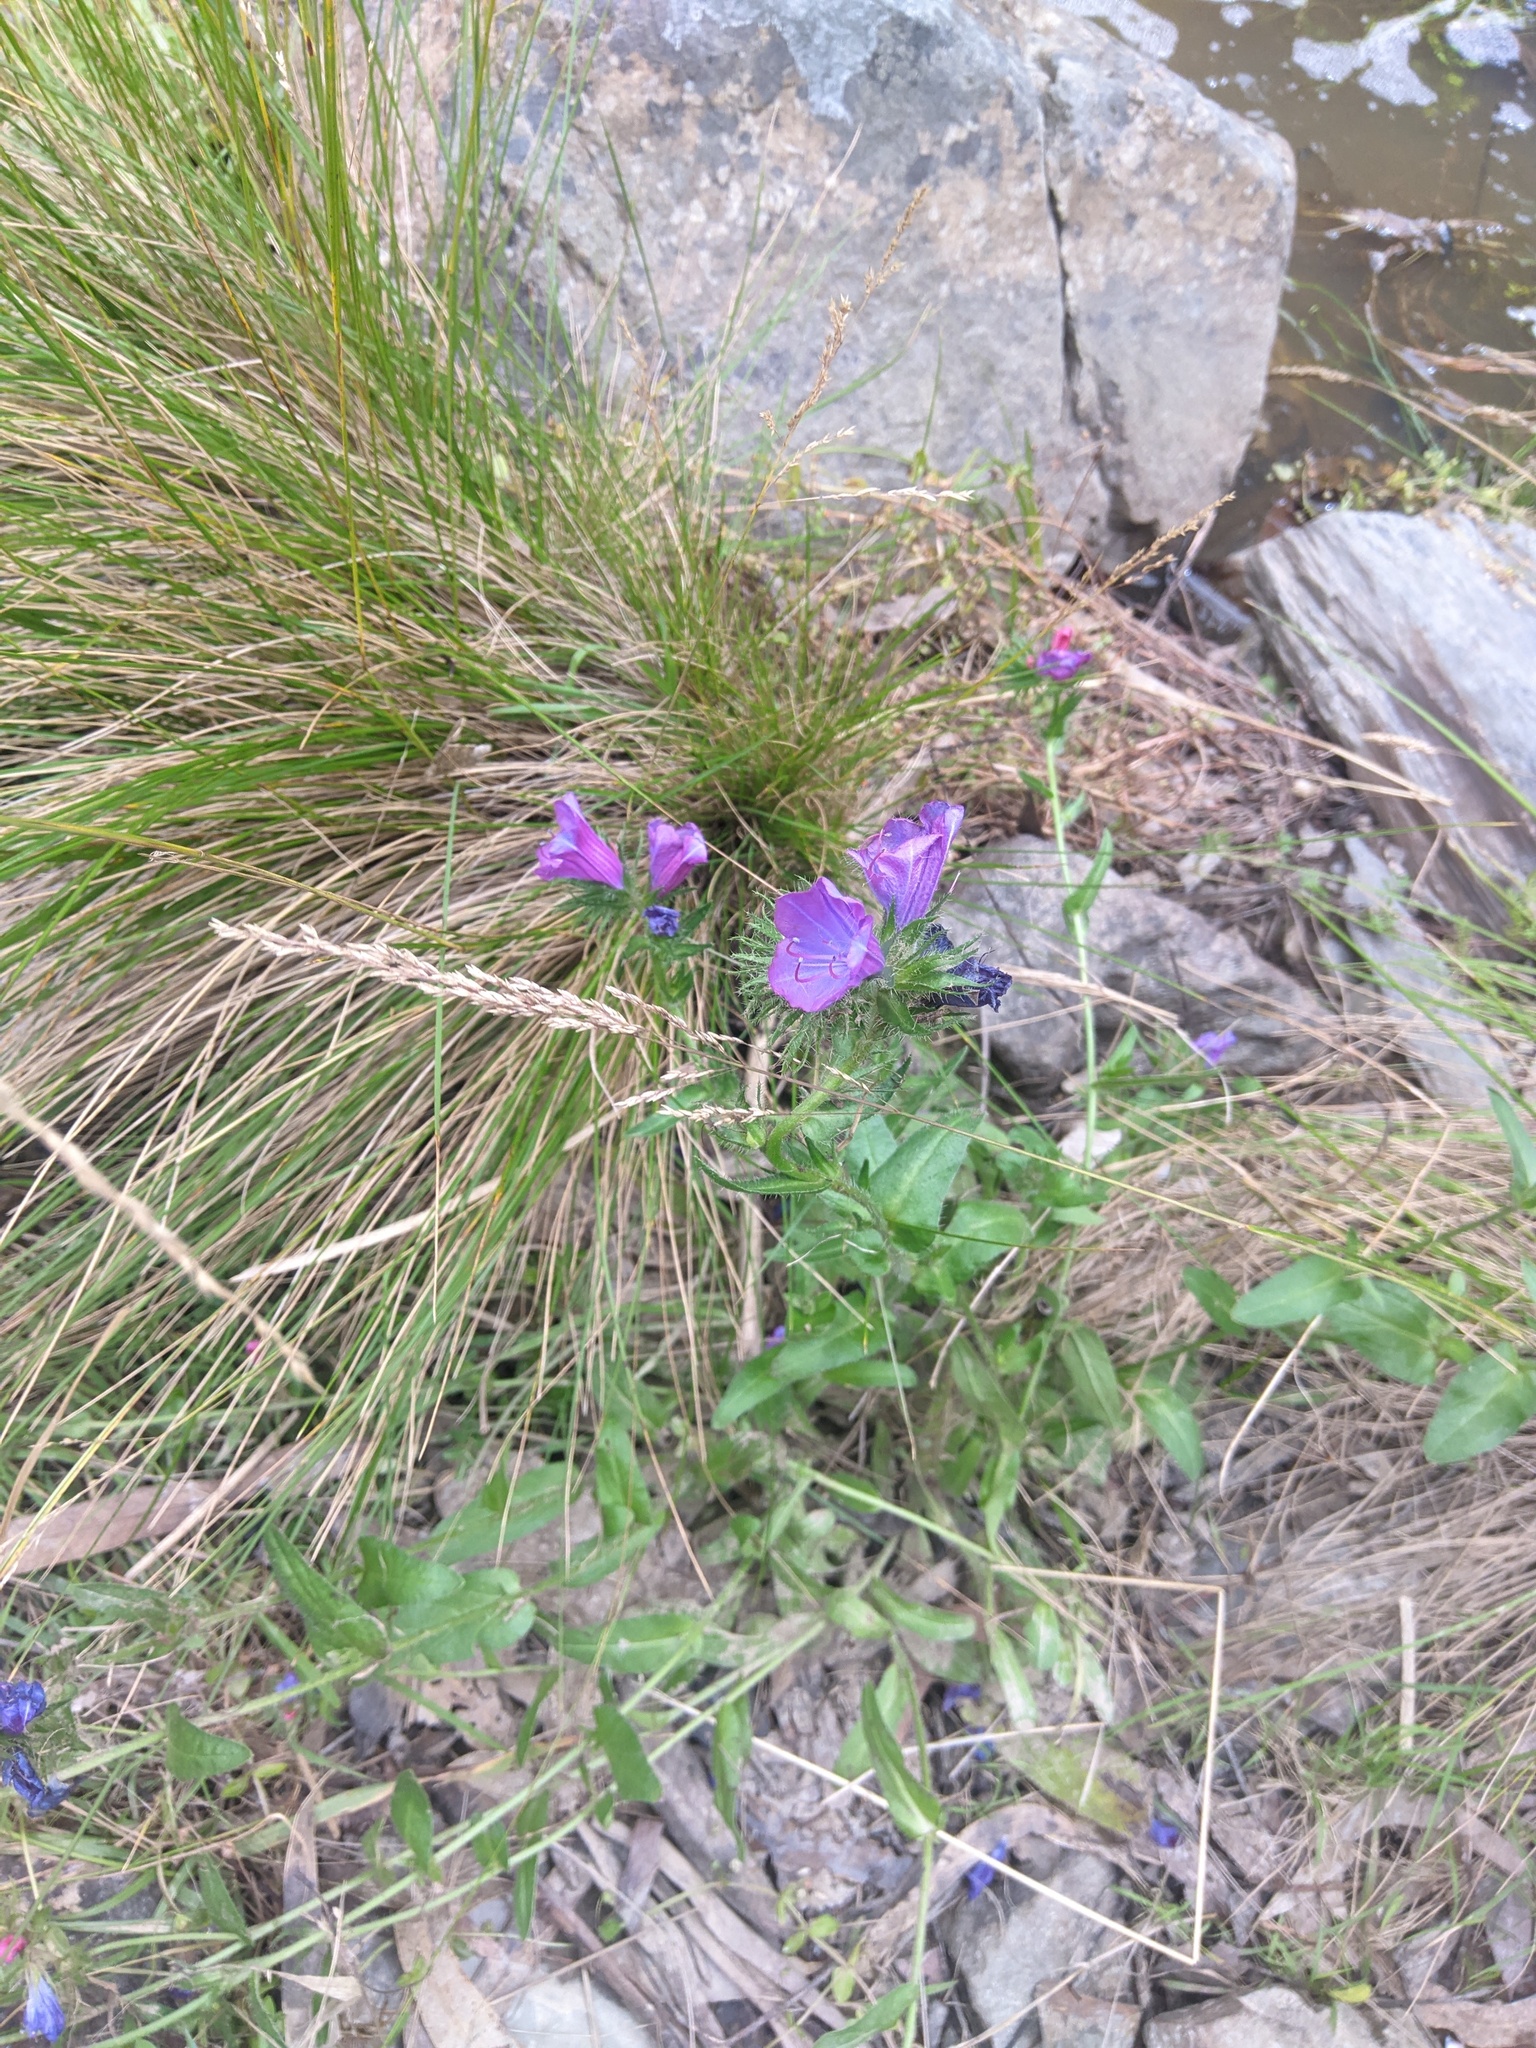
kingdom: Plantae
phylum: Tracheophyta
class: Magnoliopsida
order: Boraginales
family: Boraginaceae
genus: Echium
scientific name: Echium plantagineum
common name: Purple viper's-bugloss
